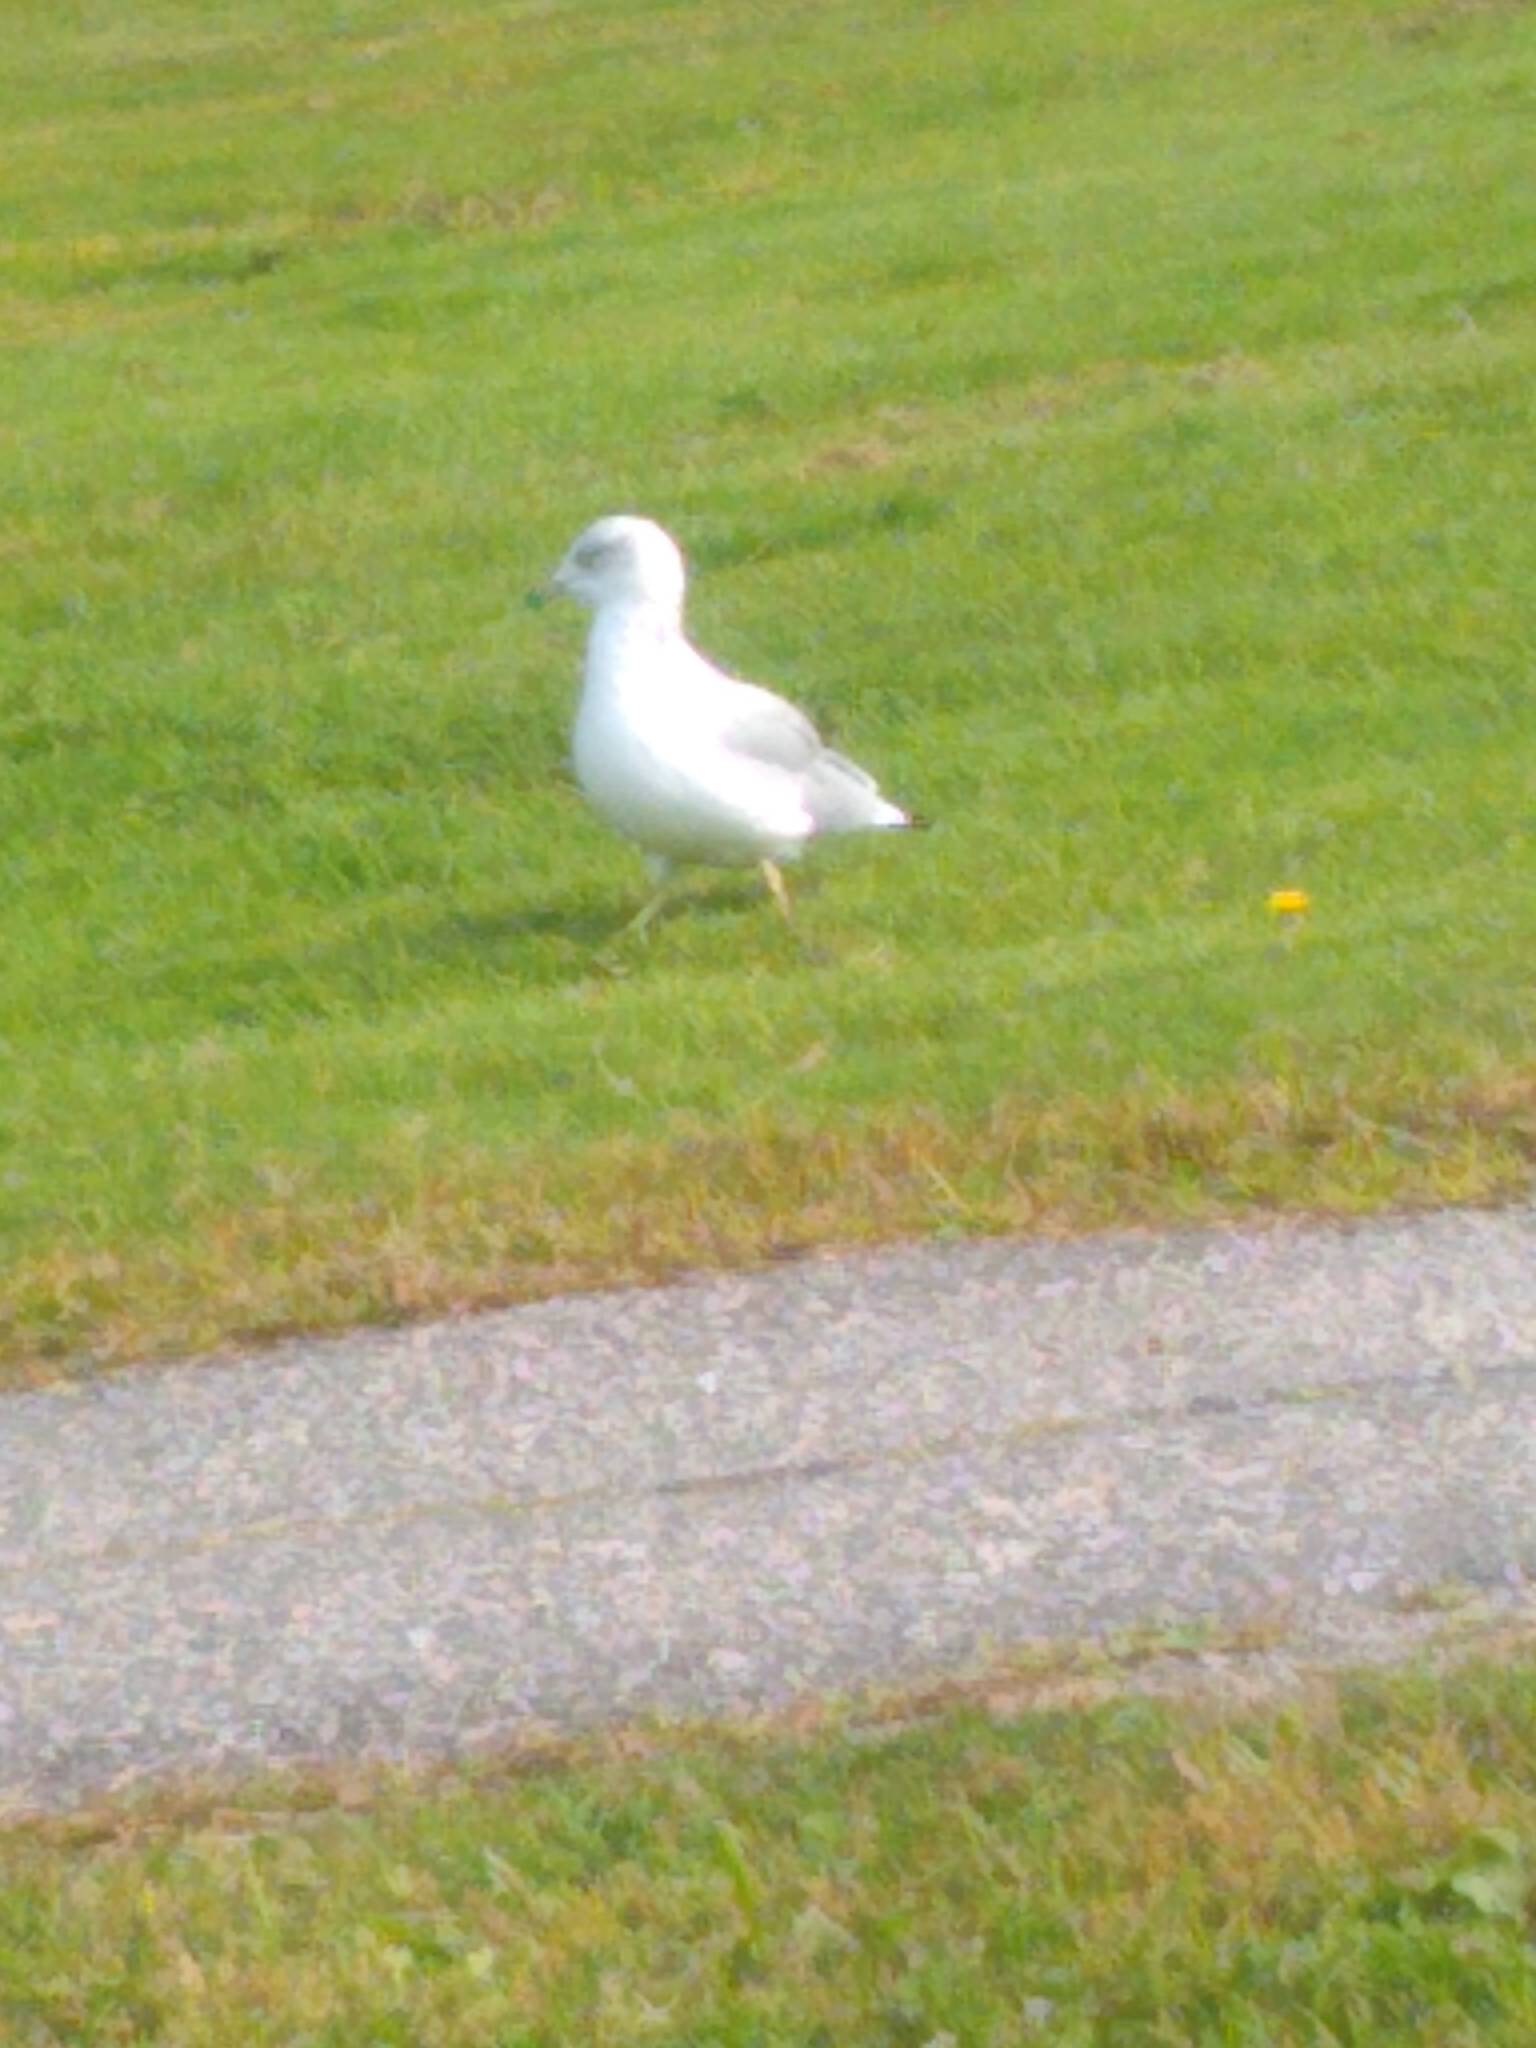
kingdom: Animalia
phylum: Chordata
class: Aves
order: Charadriiformes
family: Laridae
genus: Larus
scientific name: Larus delawarensis
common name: Ring-billed gull
